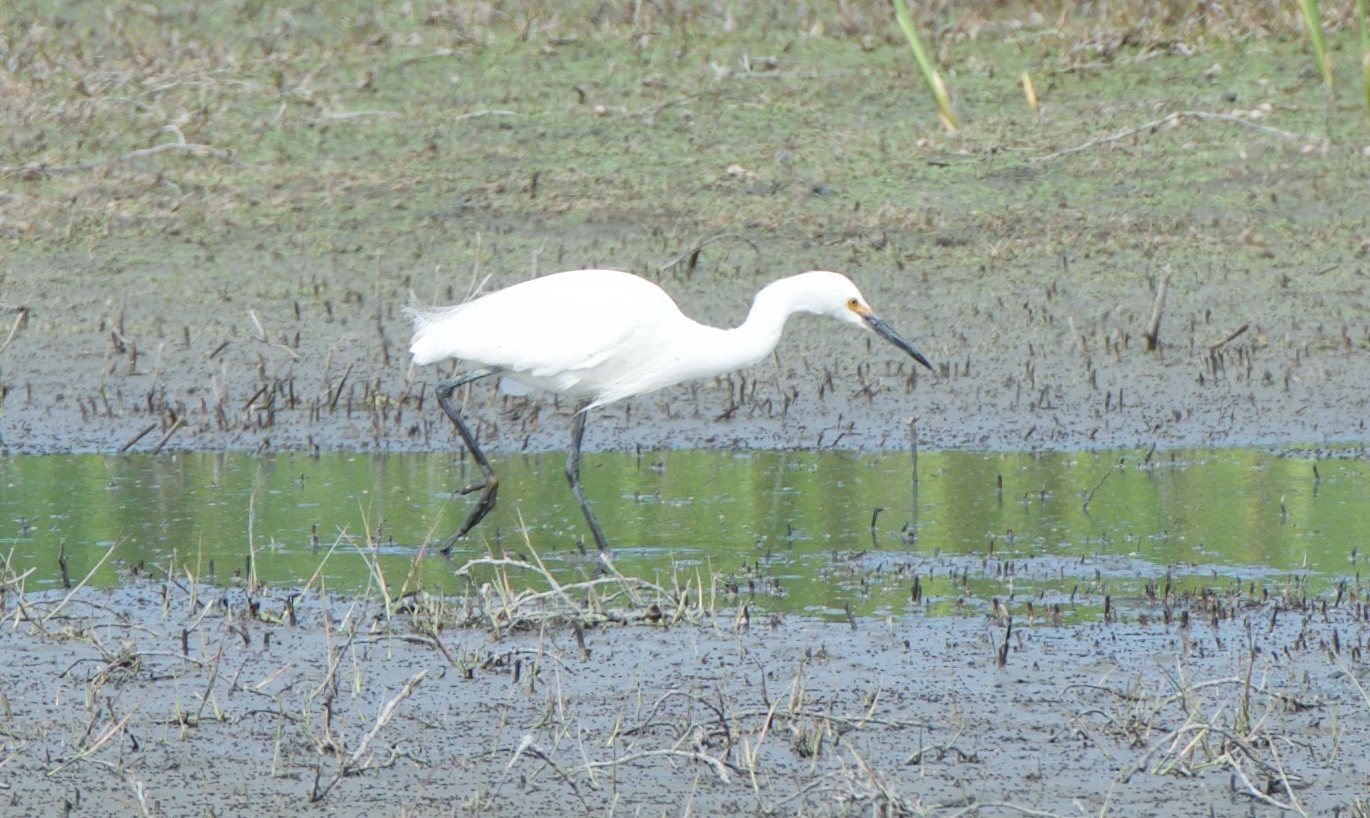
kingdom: Animalia
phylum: Chordata
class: Aves
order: Pelecaniformes
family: Ardeidae
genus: Egretta
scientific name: Egretta thula
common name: Snowy egret
